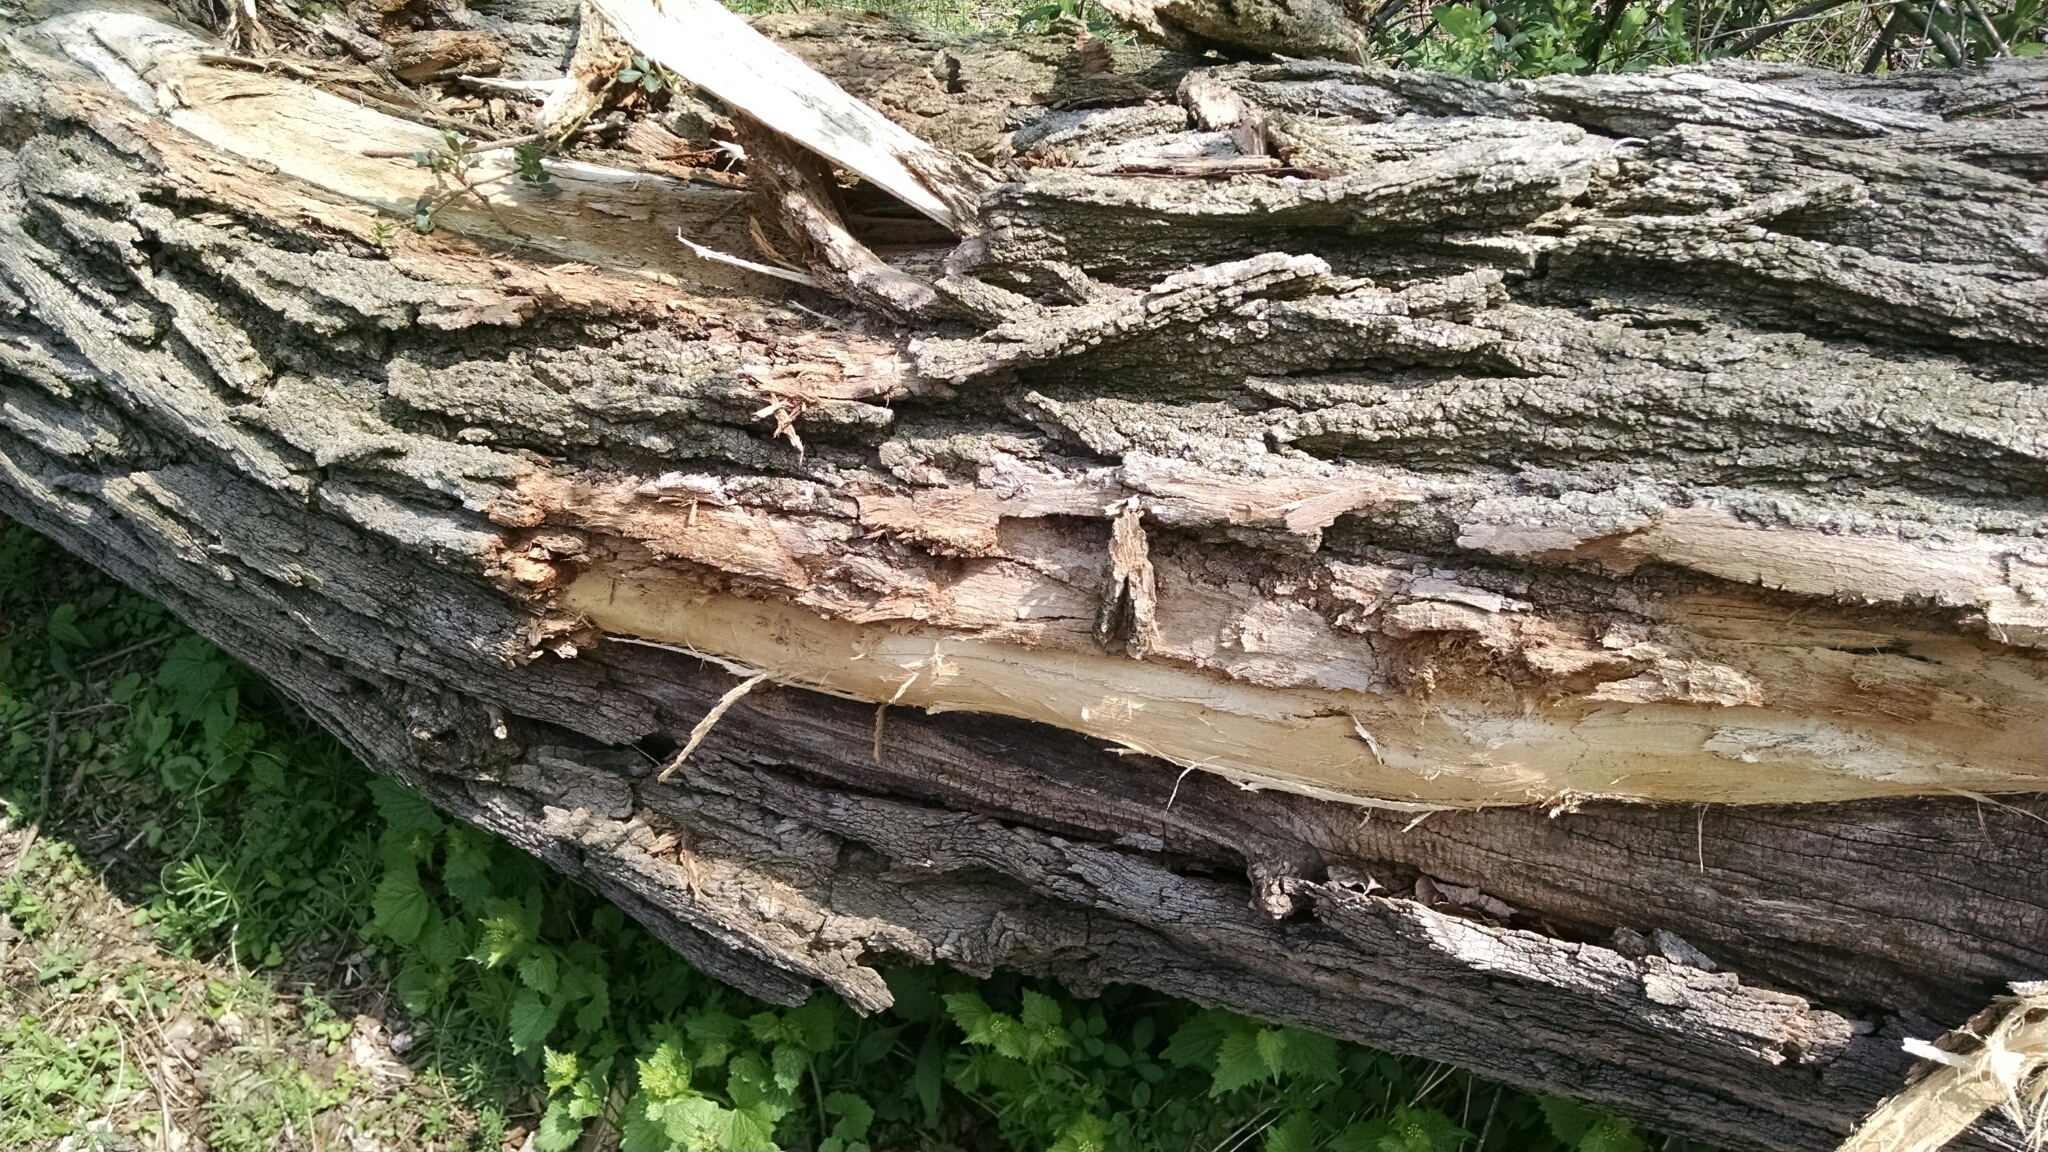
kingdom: Plantae
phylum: Tracheophyta
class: Magnoliopsida
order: Fabales
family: Fabaceae
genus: Robinia
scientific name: Robinia pseudoacacia
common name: Black locust
